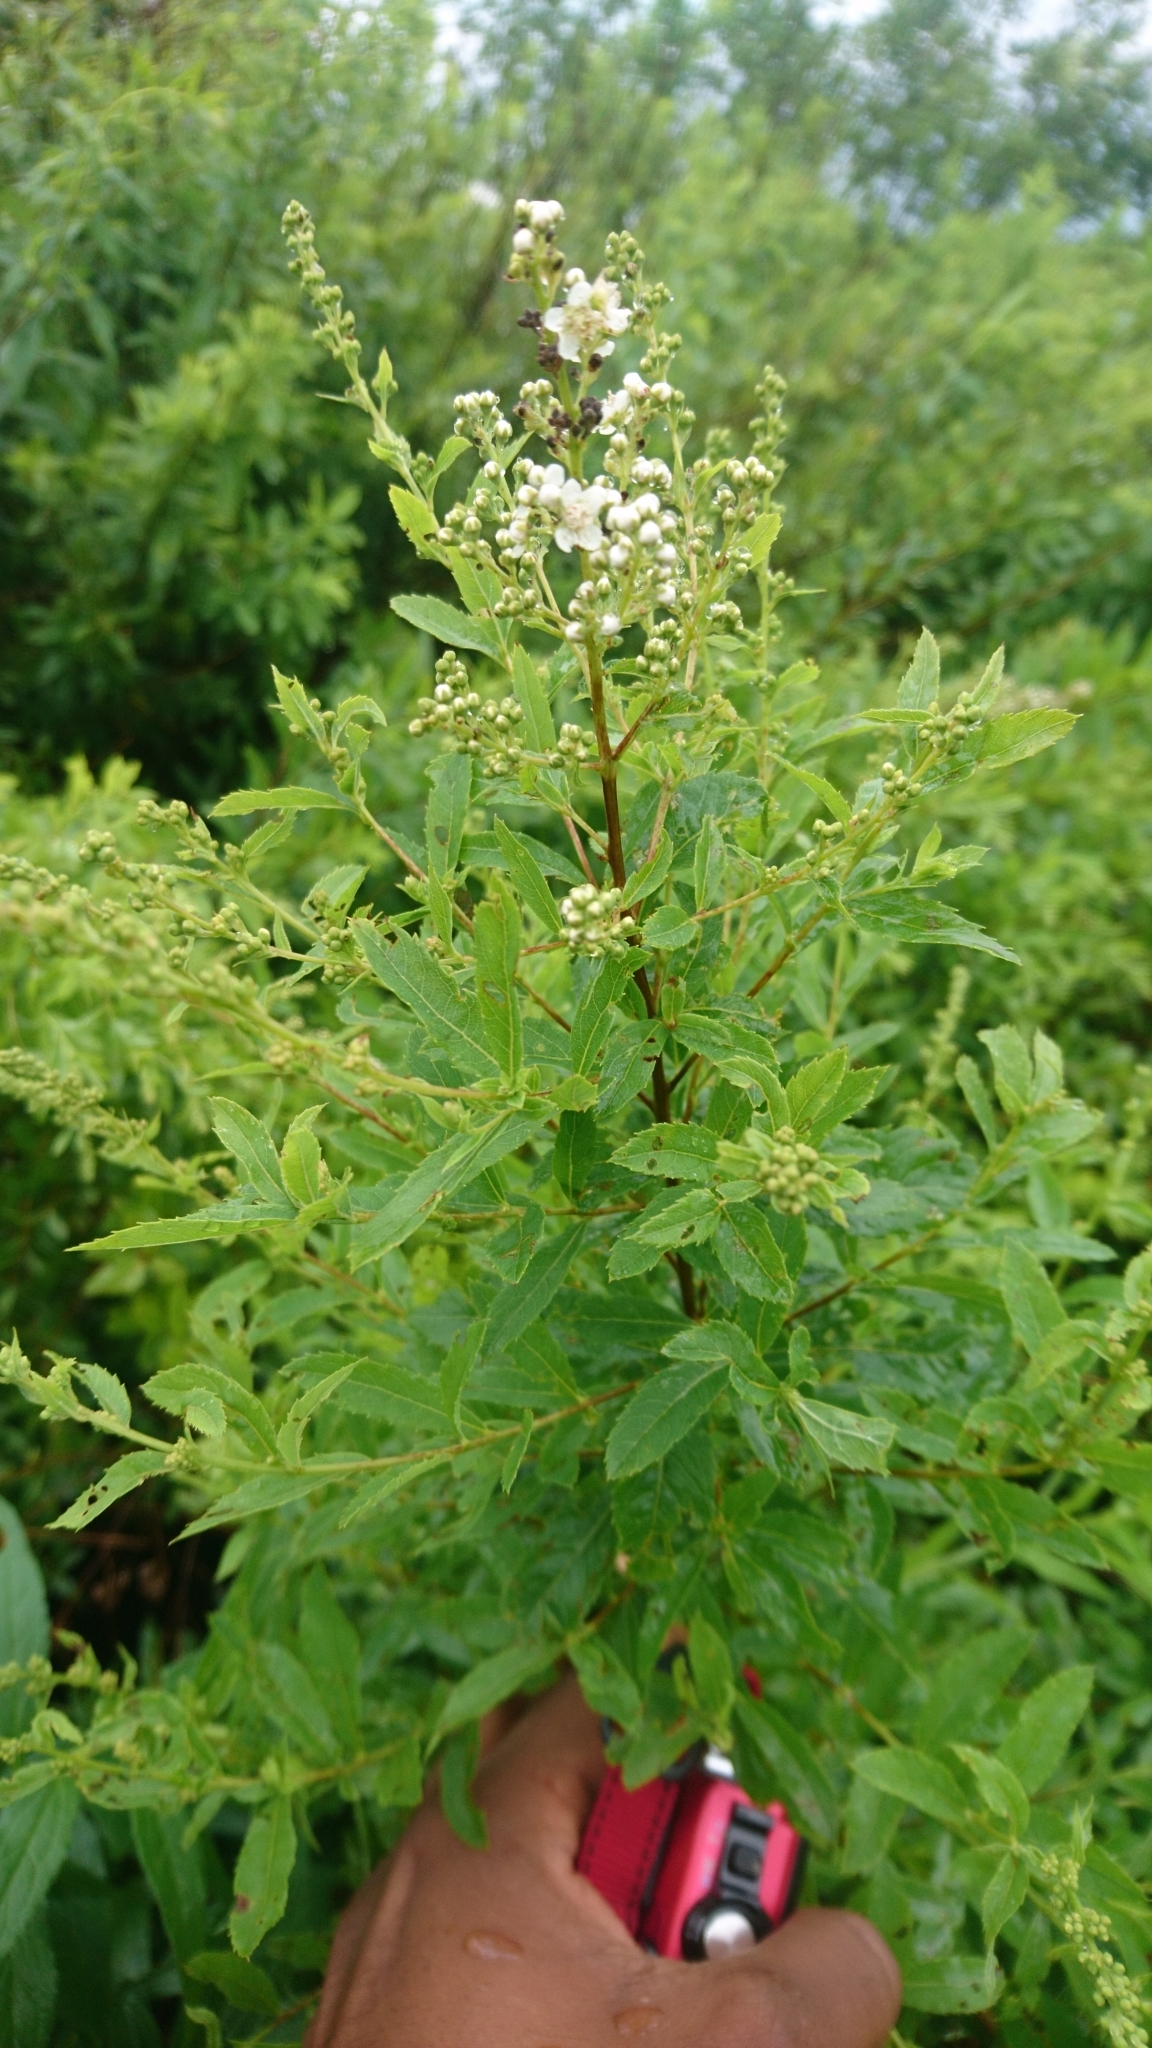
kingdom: Plantae
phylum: Tracheophyta
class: Magnoliopsida
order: Rosales
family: Rosaceae
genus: Spiraea
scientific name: Spiraea alba
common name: Pale bridewort
